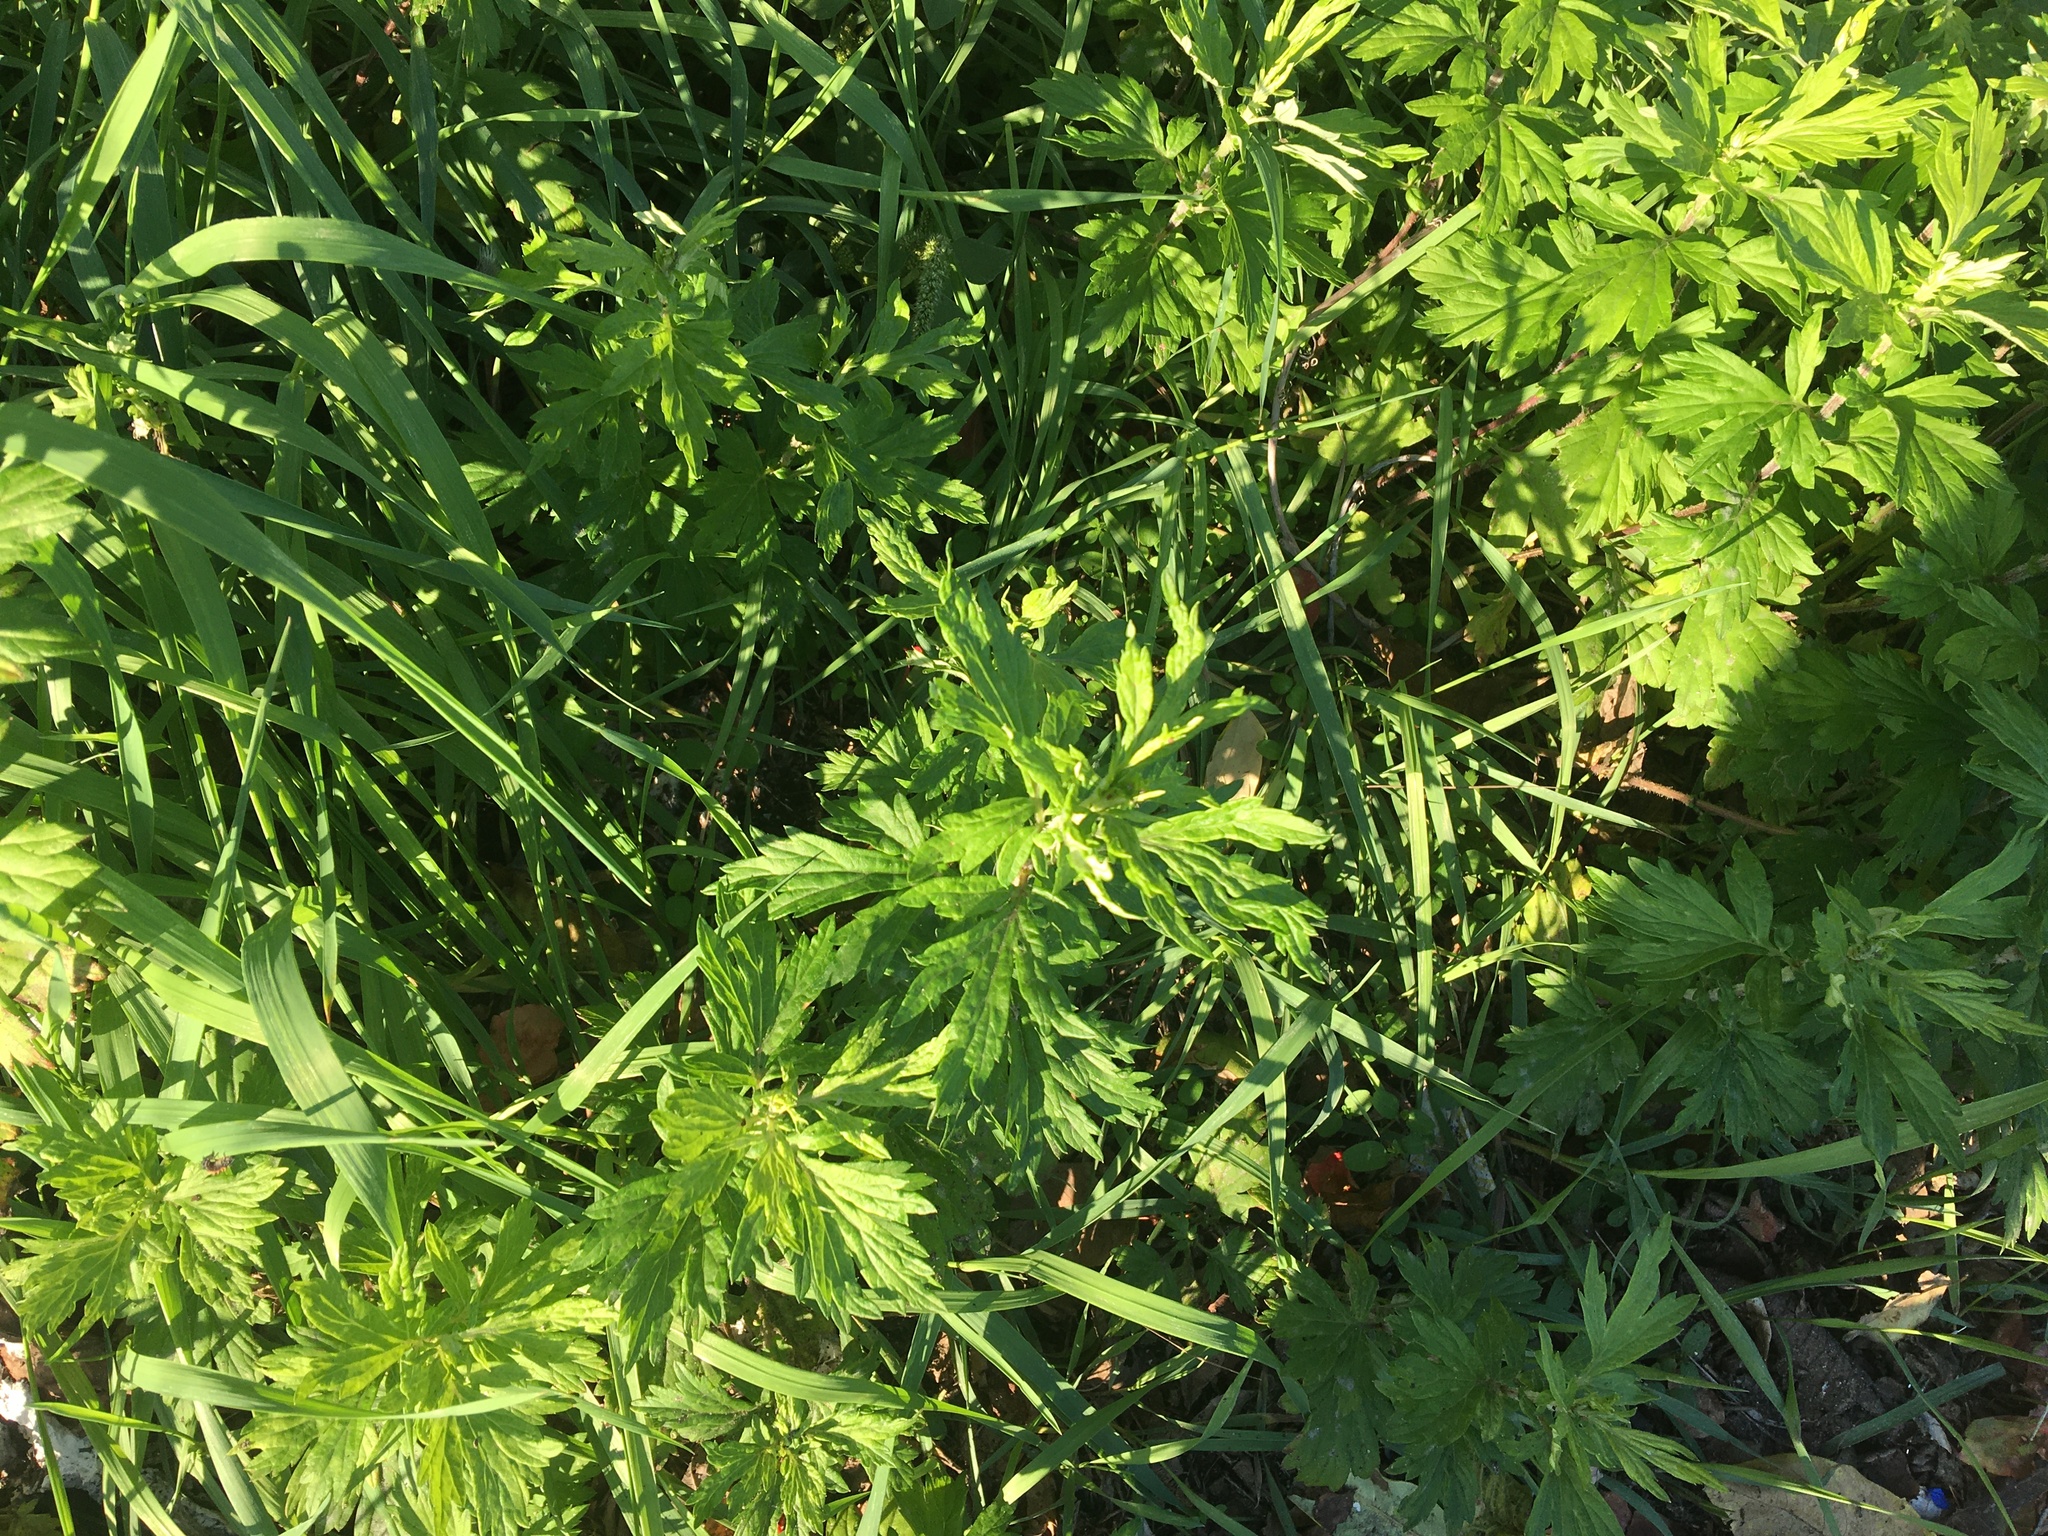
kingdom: Plantae
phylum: Tracheophyta
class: Magnoliopsida
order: Asterales
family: Asteraceae
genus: Artemisia
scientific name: Artemisia vulgaris
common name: Mugwort
